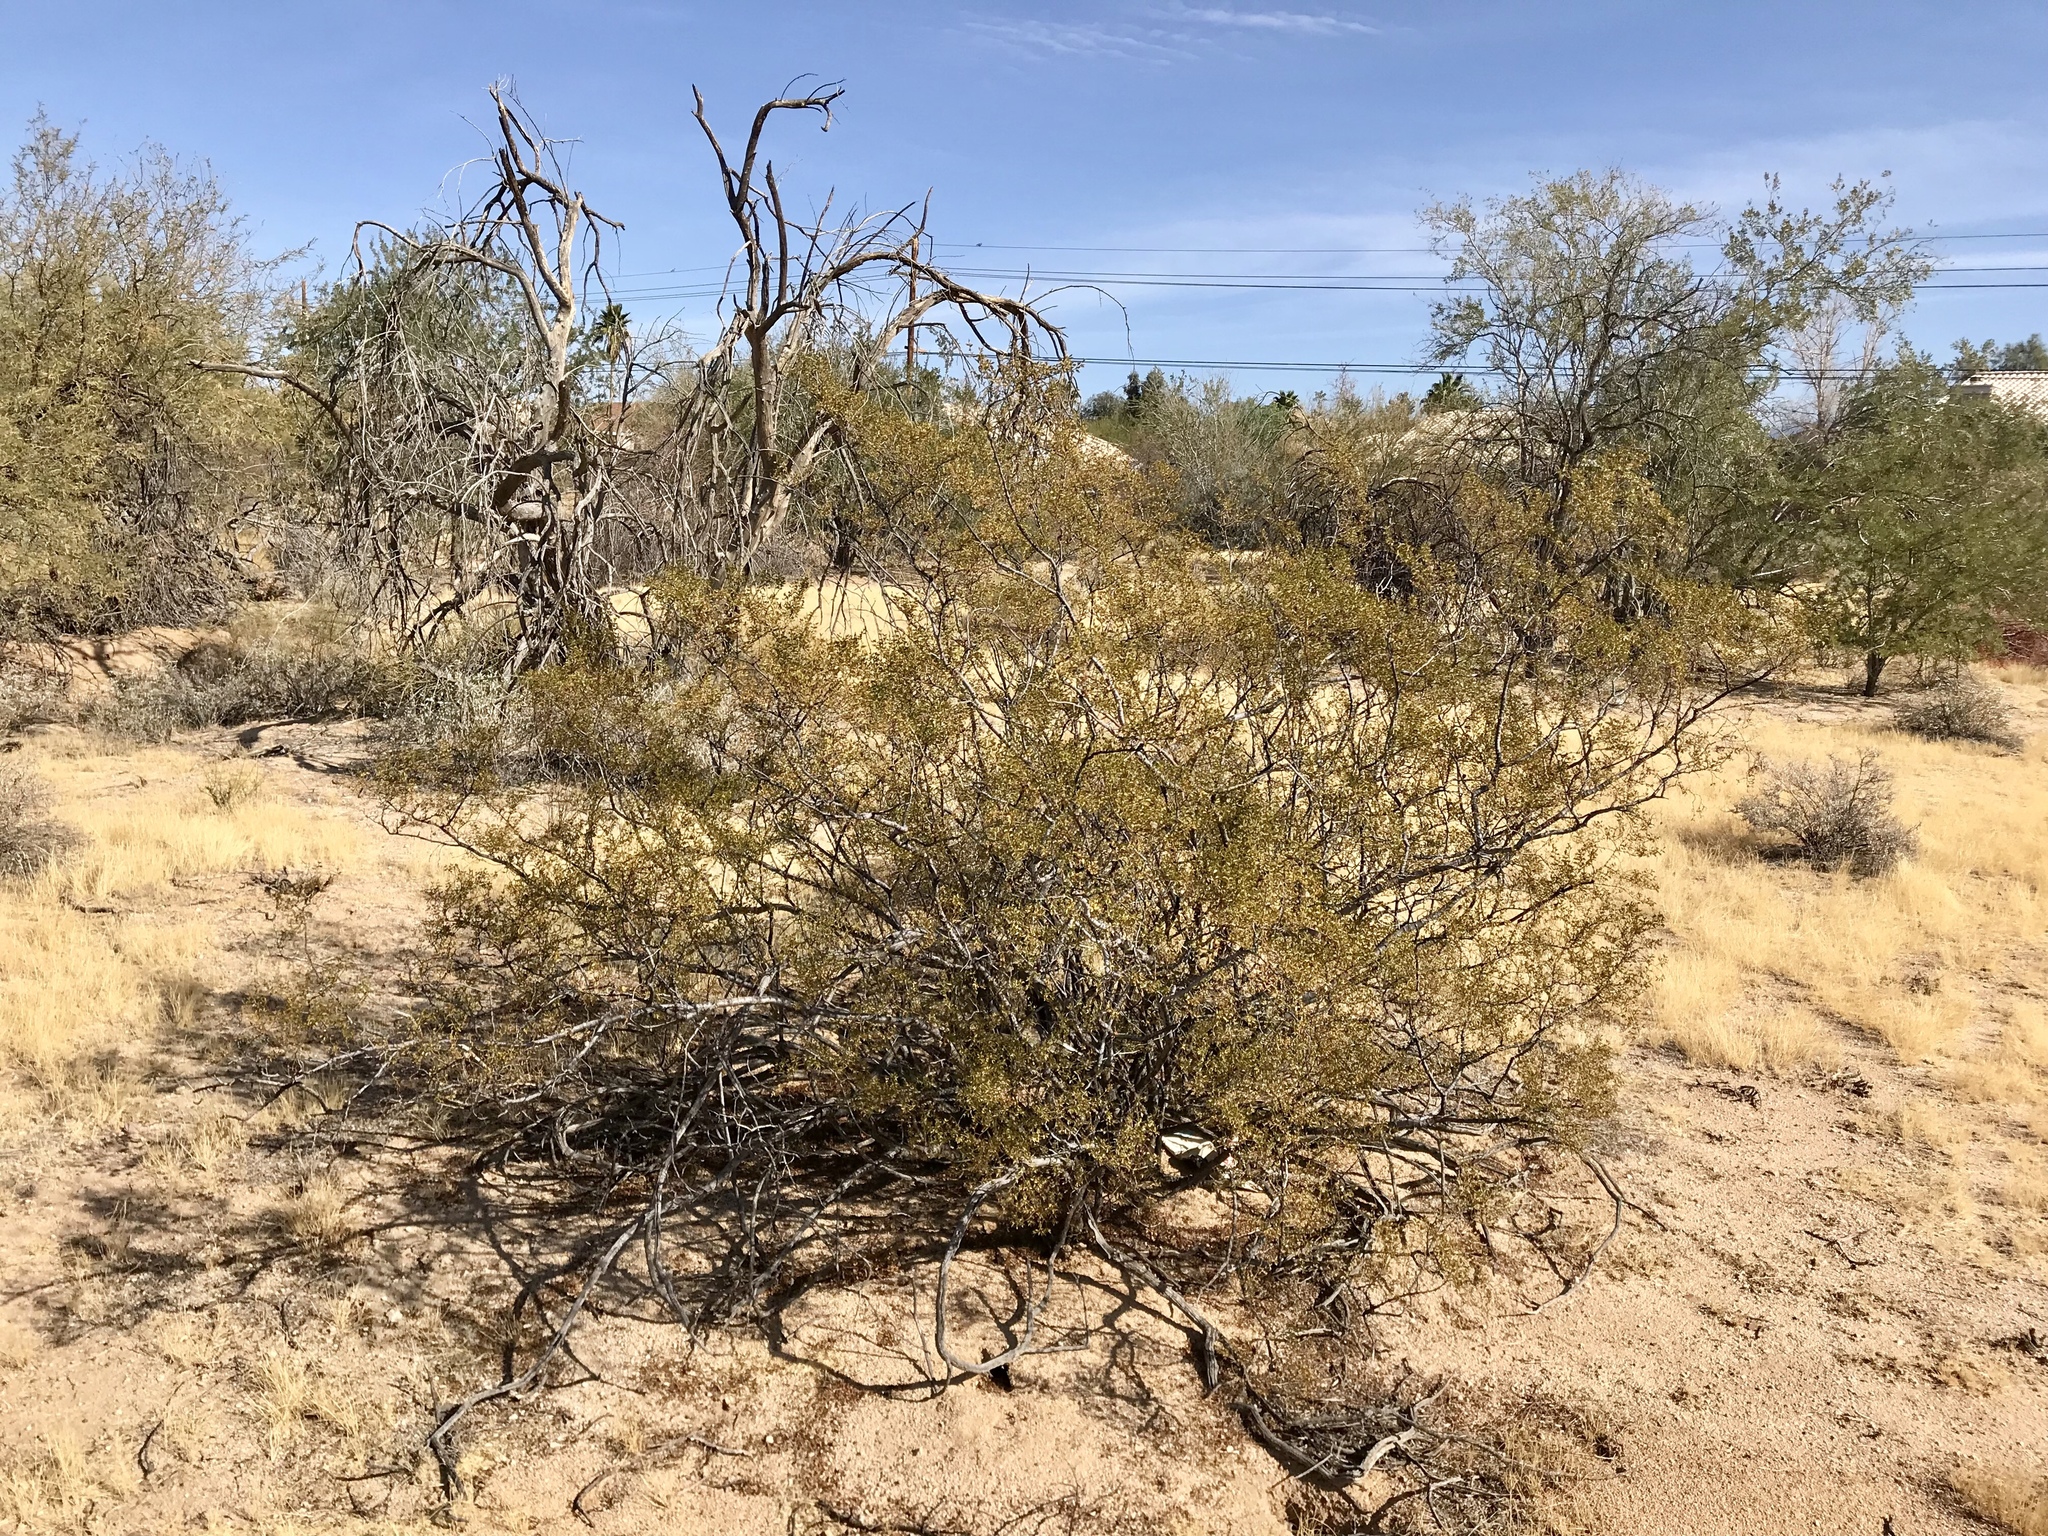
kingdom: Plantae
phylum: Tracheophyta
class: Magnoliopsida
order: Zygophyllales
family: Zygophyllaceae
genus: Larrea
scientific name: Larrea tridentata
